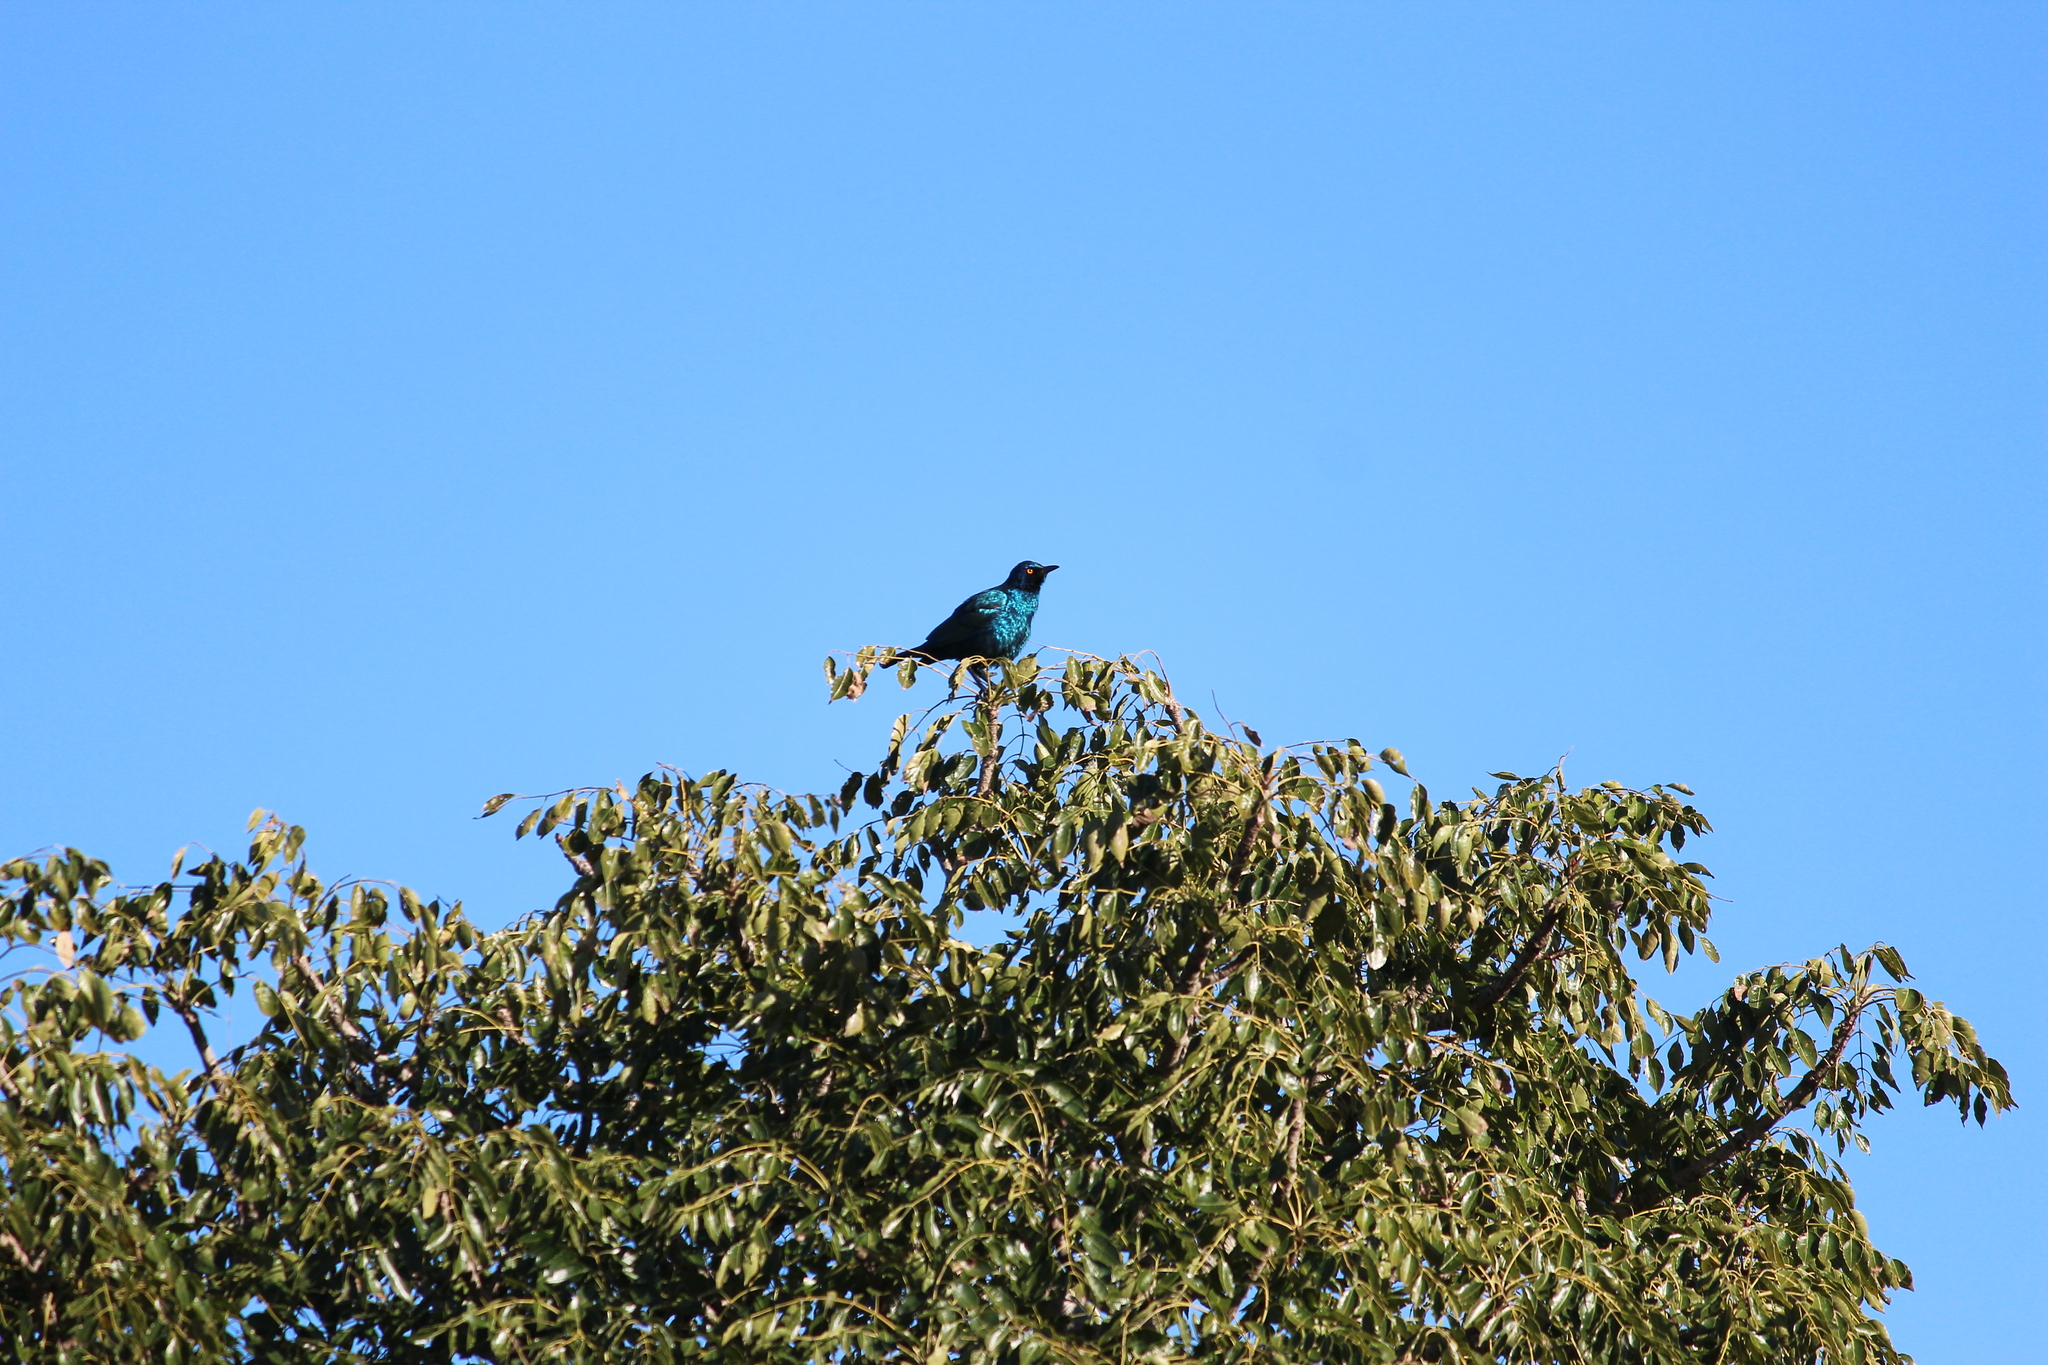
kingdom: Animalia
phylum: Chordata
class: Aves
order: Passeriformes
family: Sturnidae
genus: Lamprotornis
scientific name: Lamprotornis nitens
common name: Cape starling
